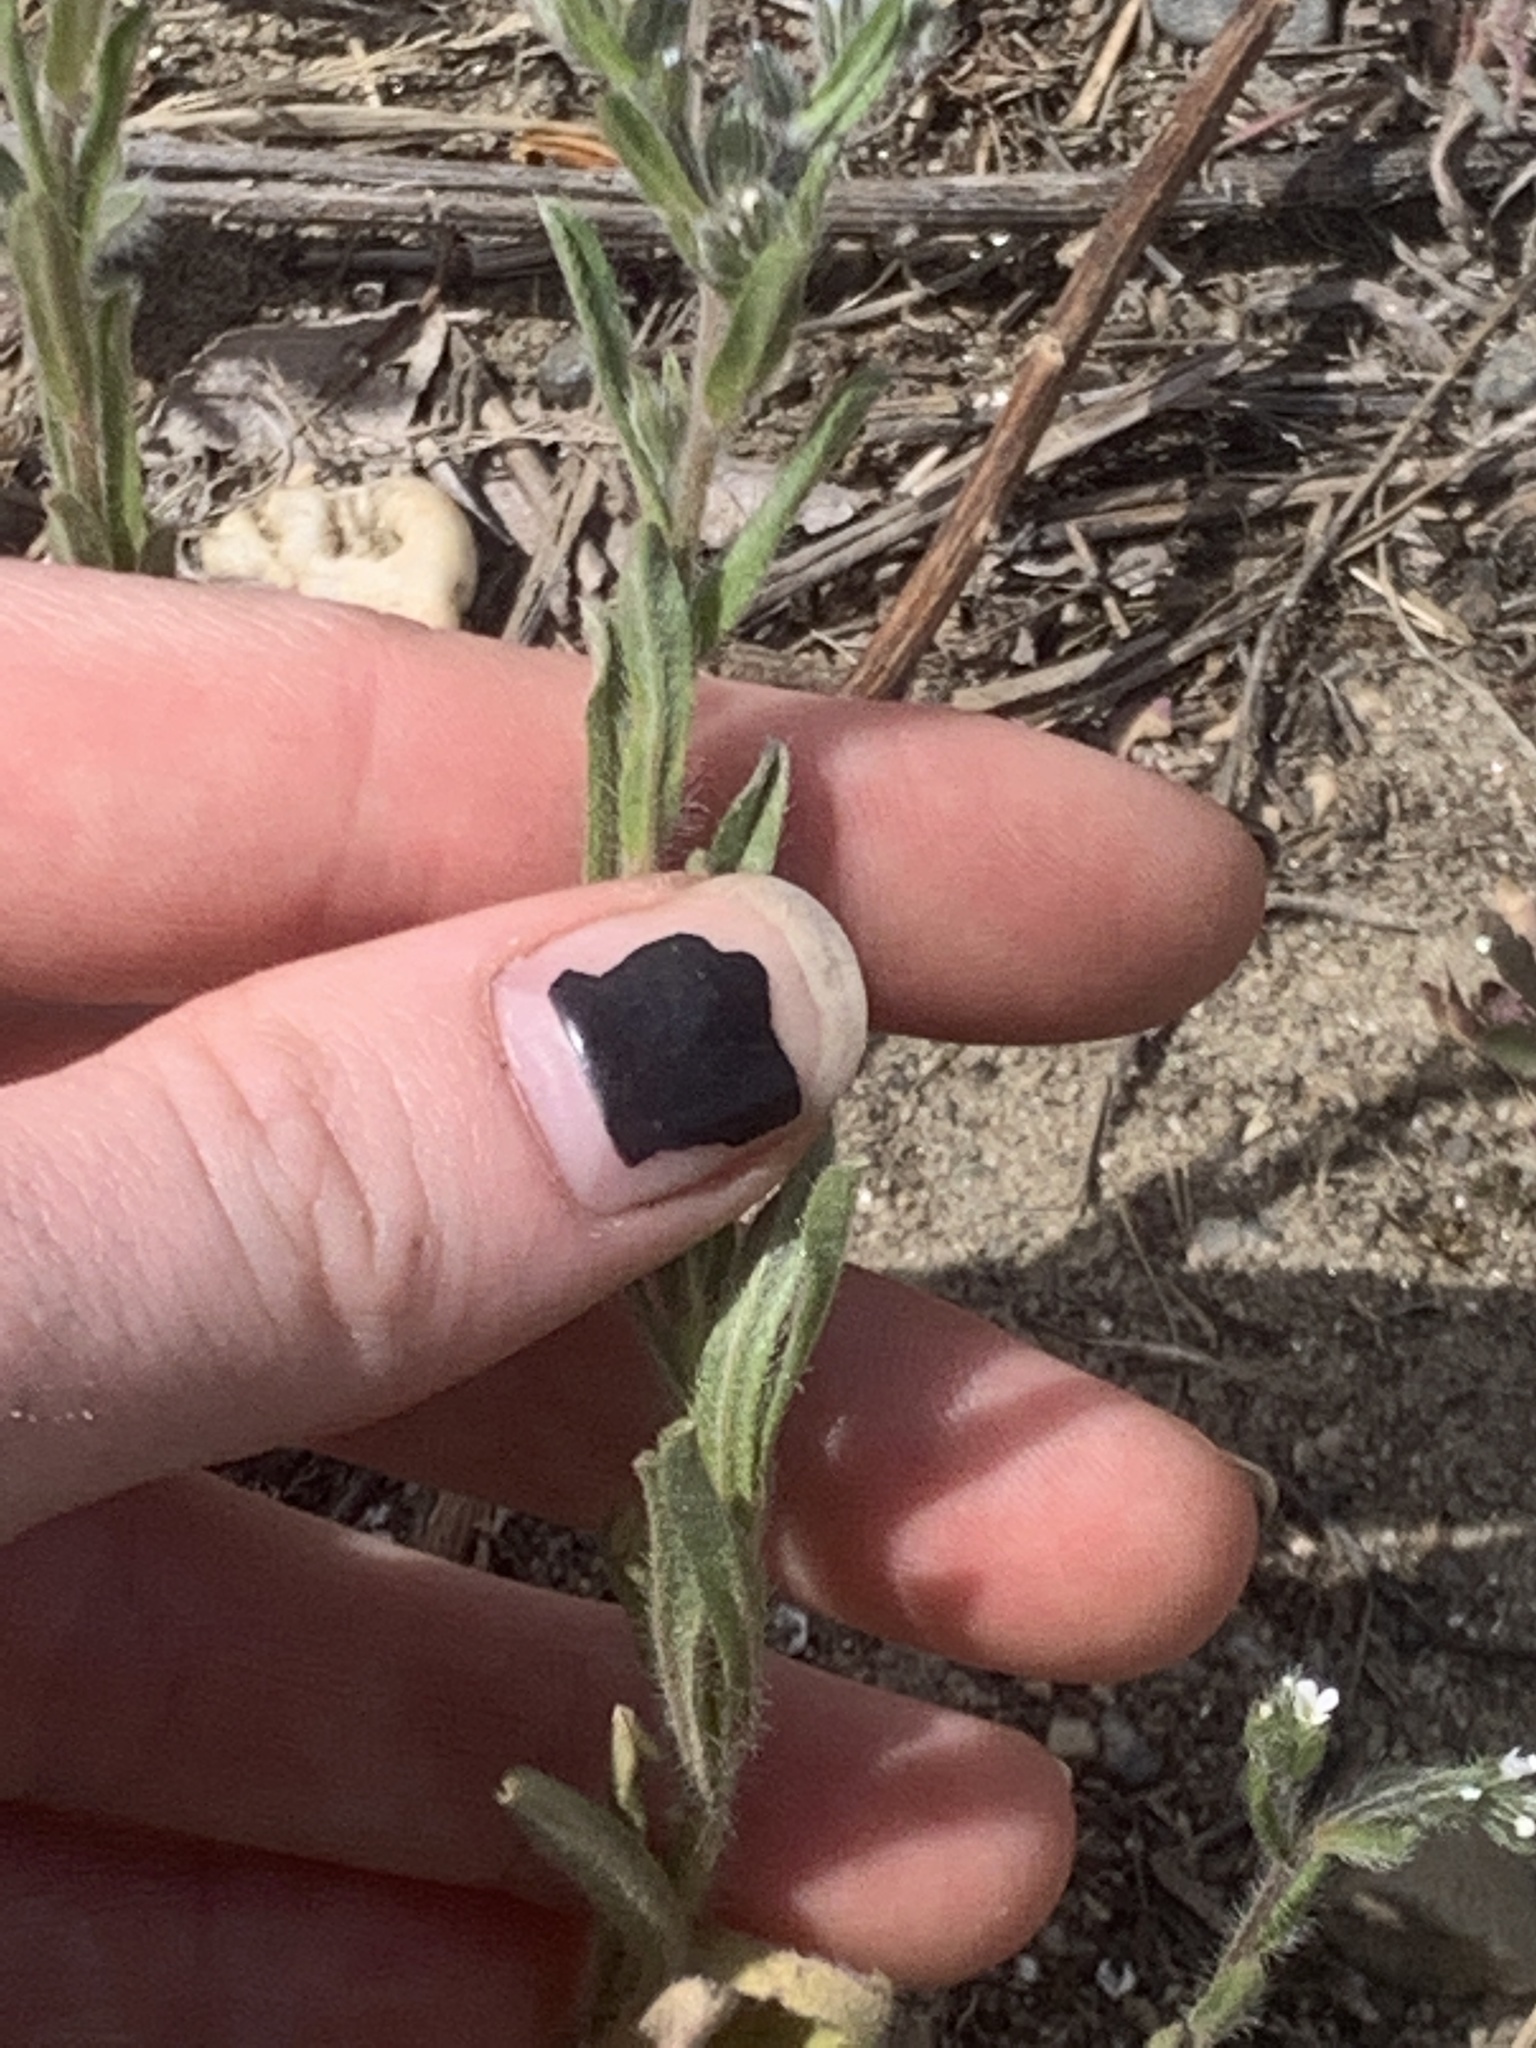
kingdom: Plantae
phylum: Tracheophyta
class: Magnoliopsida
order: Boraginales
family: Boraginaceae
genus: Buglossoides
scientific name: Buglossoides arvensis
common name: Corn gromwell
